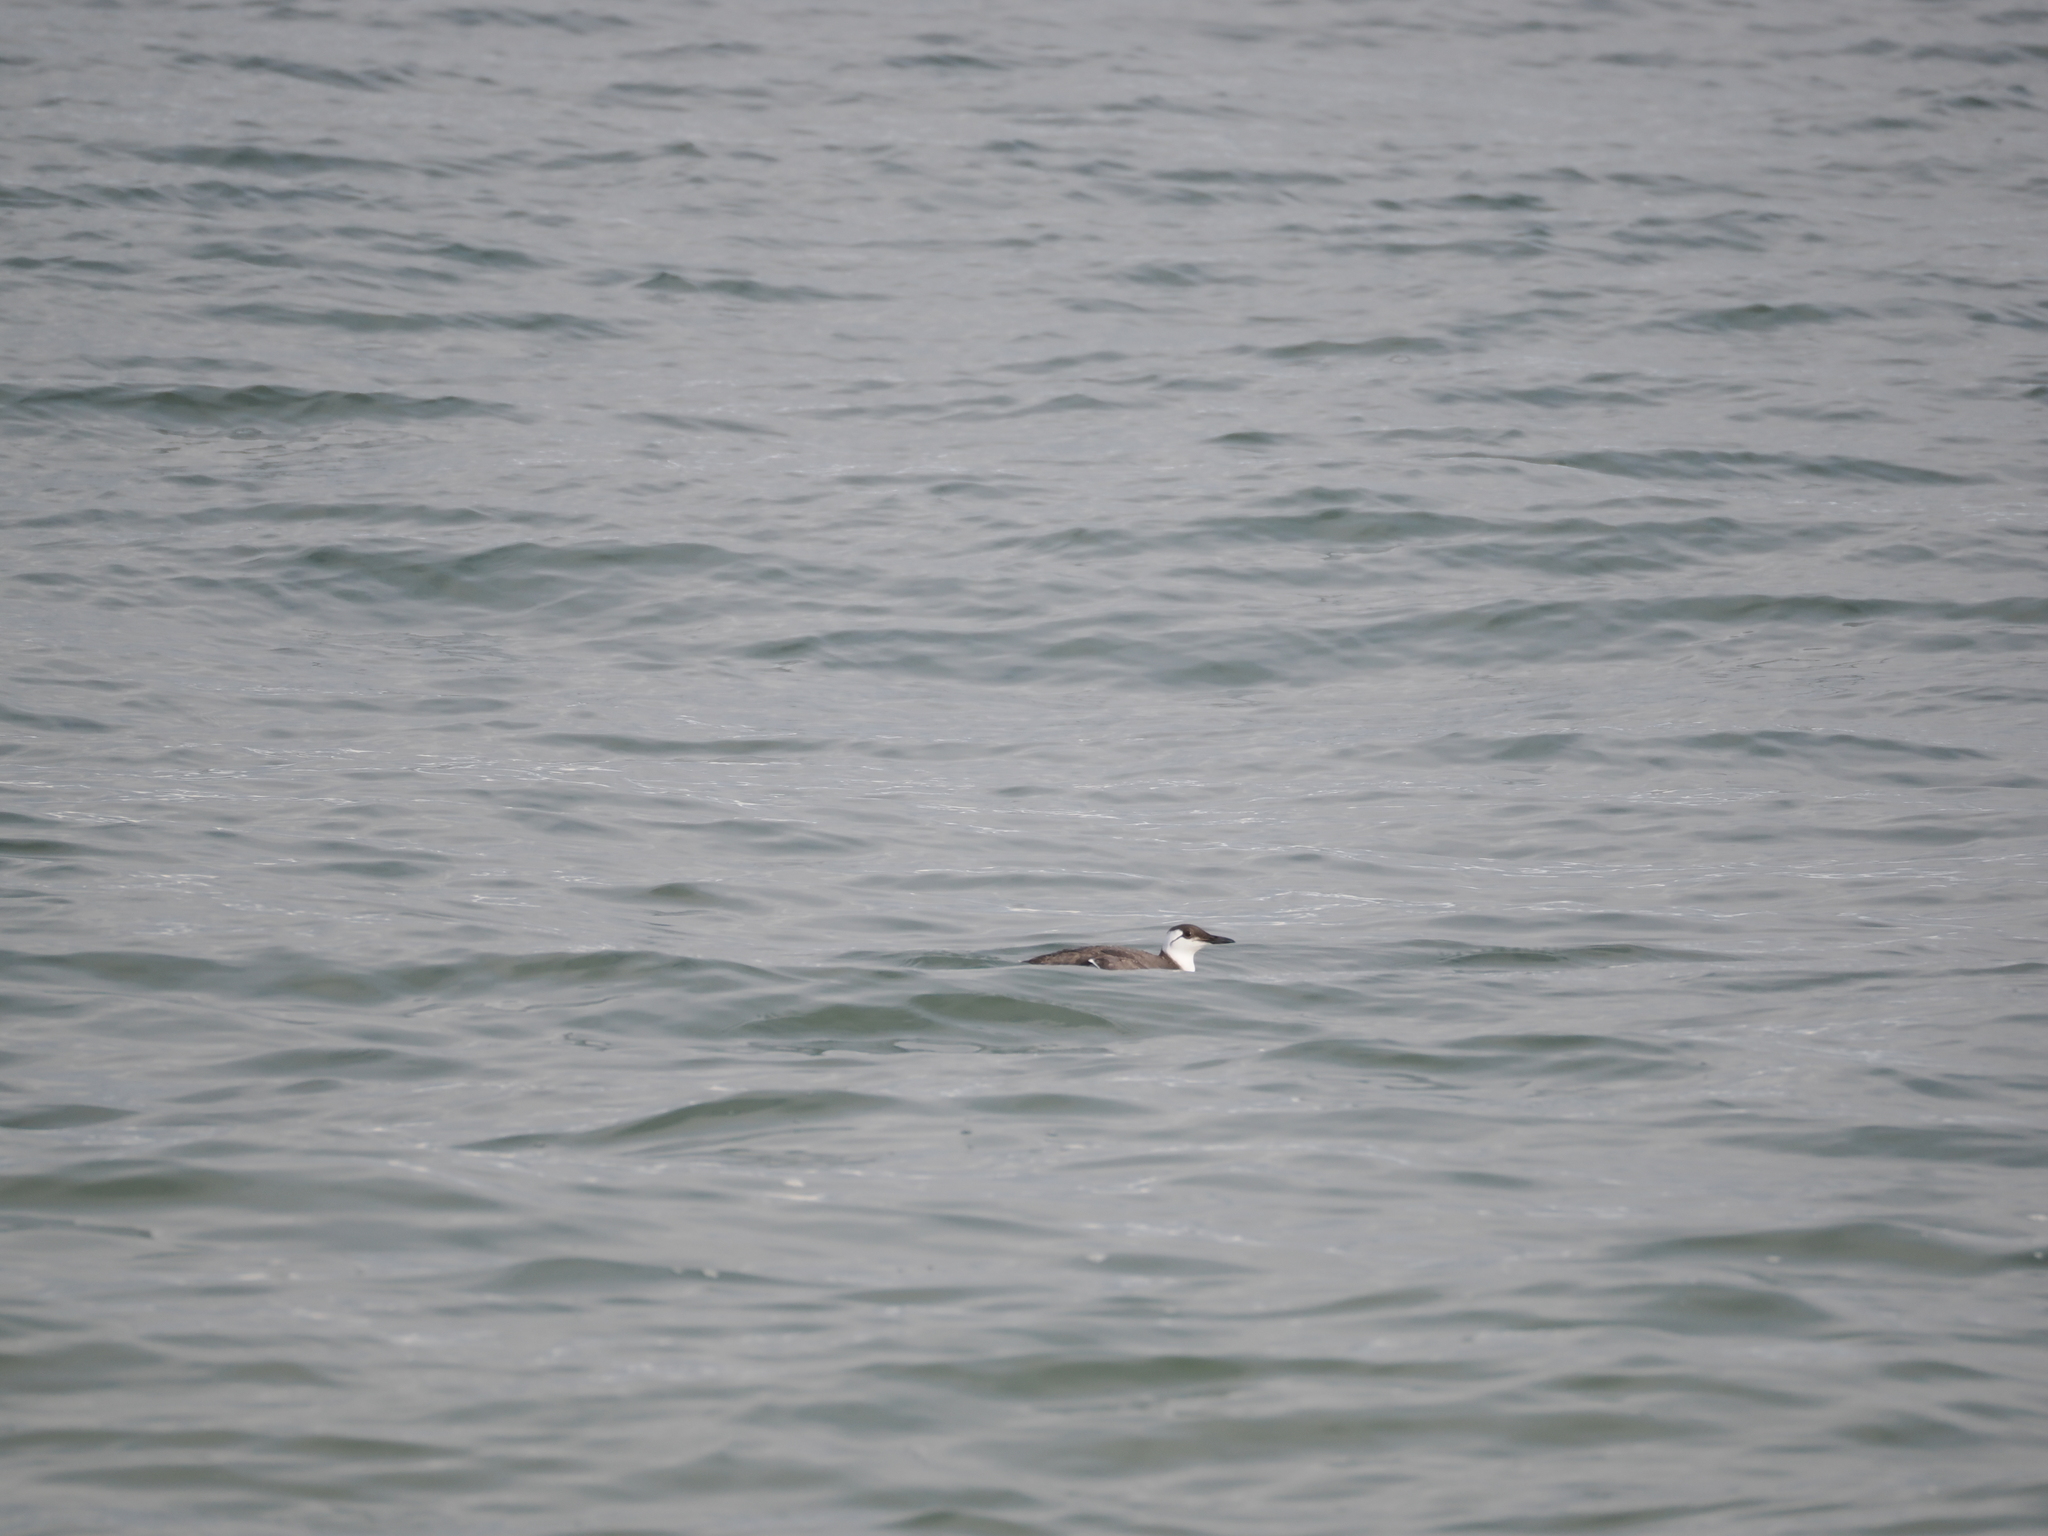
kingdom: Animalia
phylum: Chordata
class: Aves
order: Charadriiformes
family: Alcidae
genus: Uria
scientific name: Uria aalge
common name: Common murre
